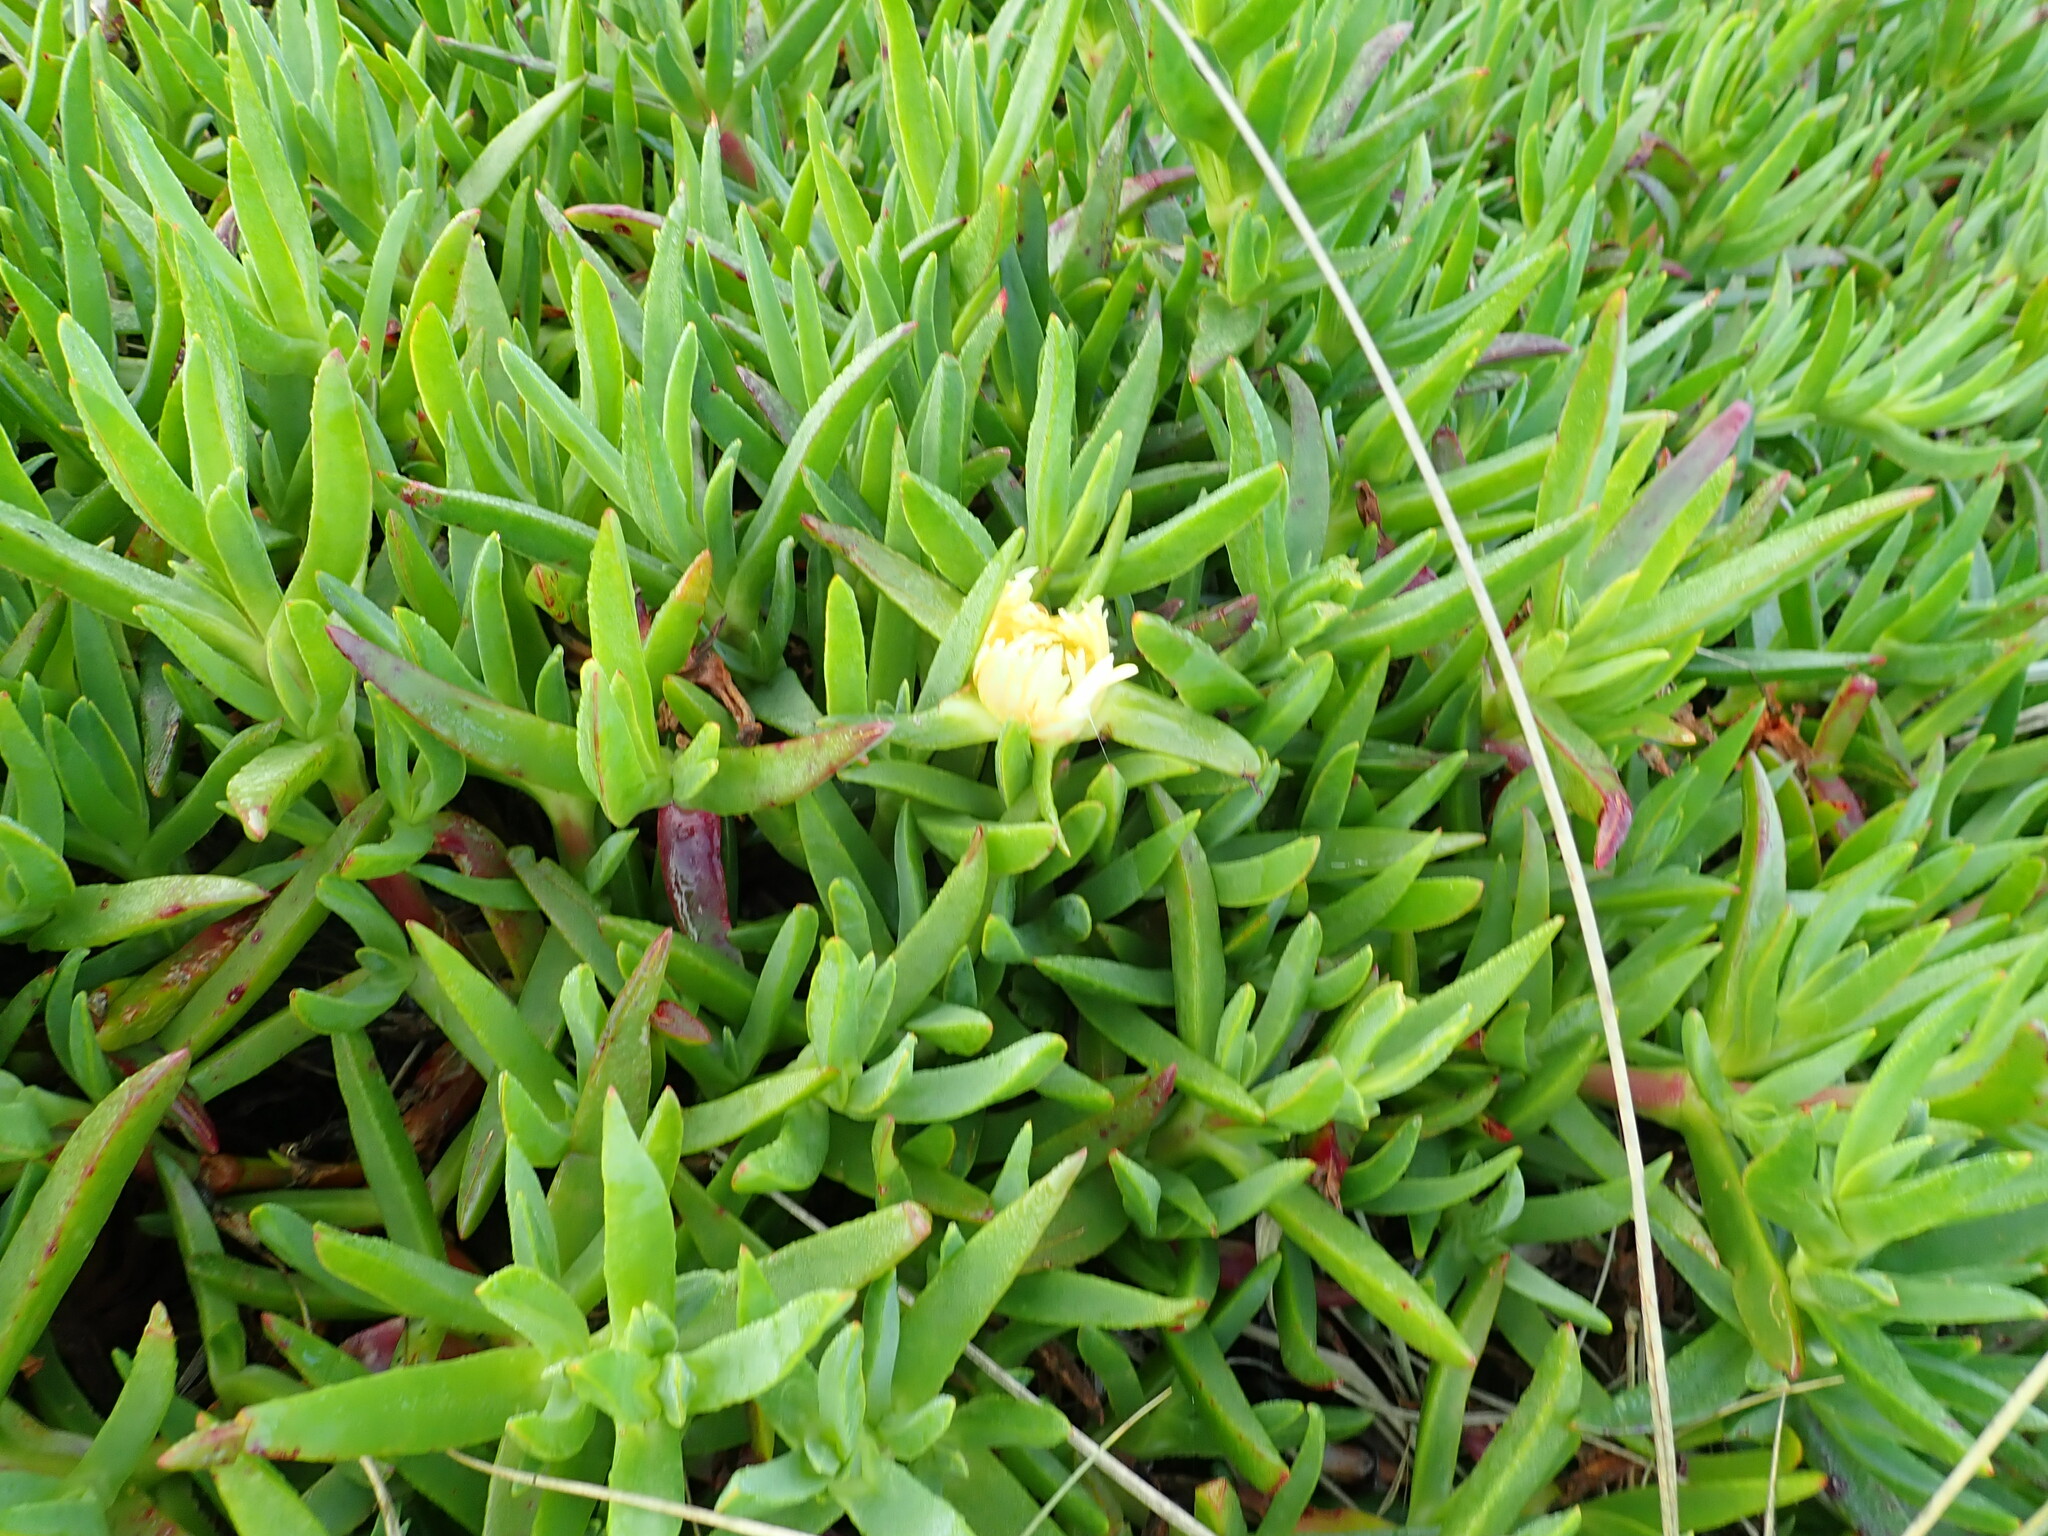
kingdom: Plantae
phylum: Tracheophyta
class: Magnoliopsida
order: Caryophyllales
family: Aizoaceae
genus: Carpobrotus
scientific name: Carpobrotus edulis
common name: Hottentot-fig
